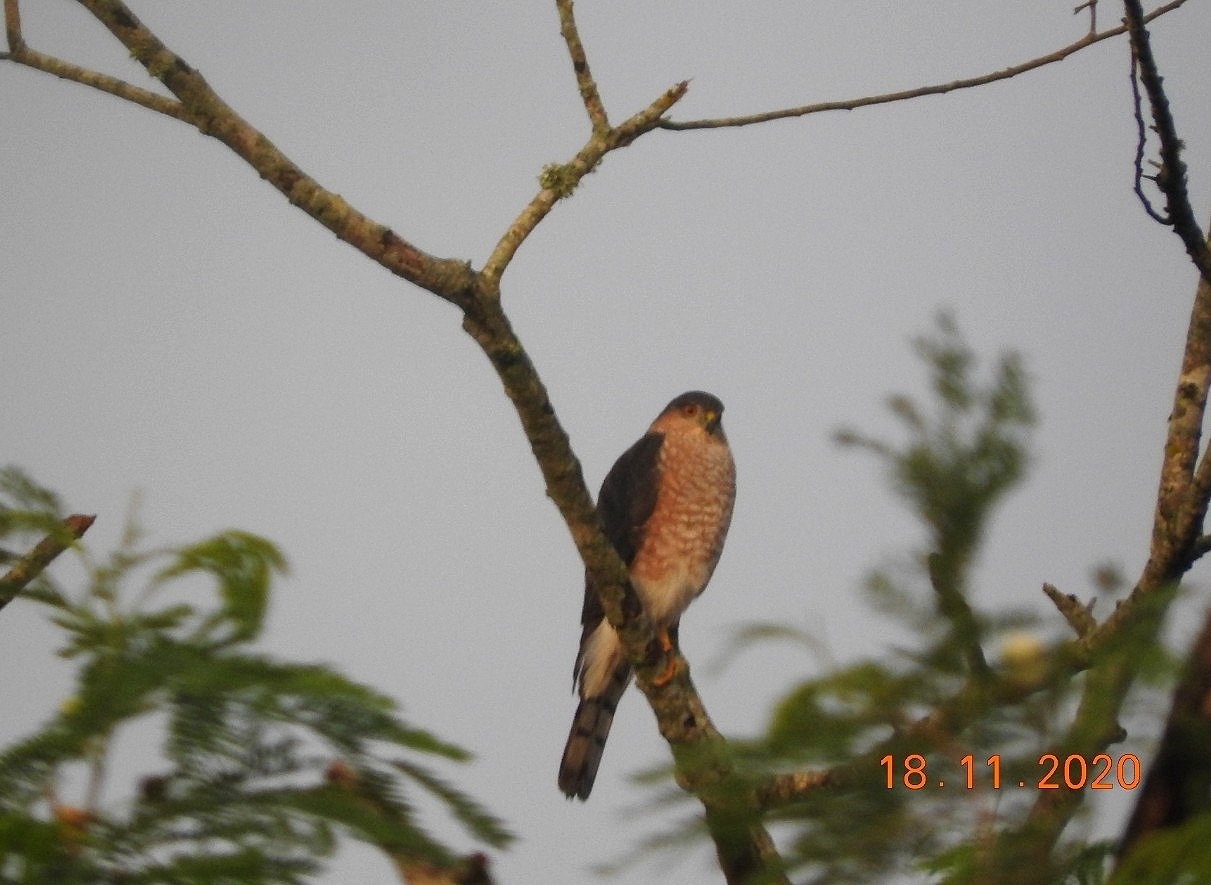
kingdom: Animalia
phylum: Chordata
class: Aves
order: Accipitriformes
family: Accipitridae
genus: Accipiter
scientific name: Accipiter striatus
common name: Sharp-shinned hawk
